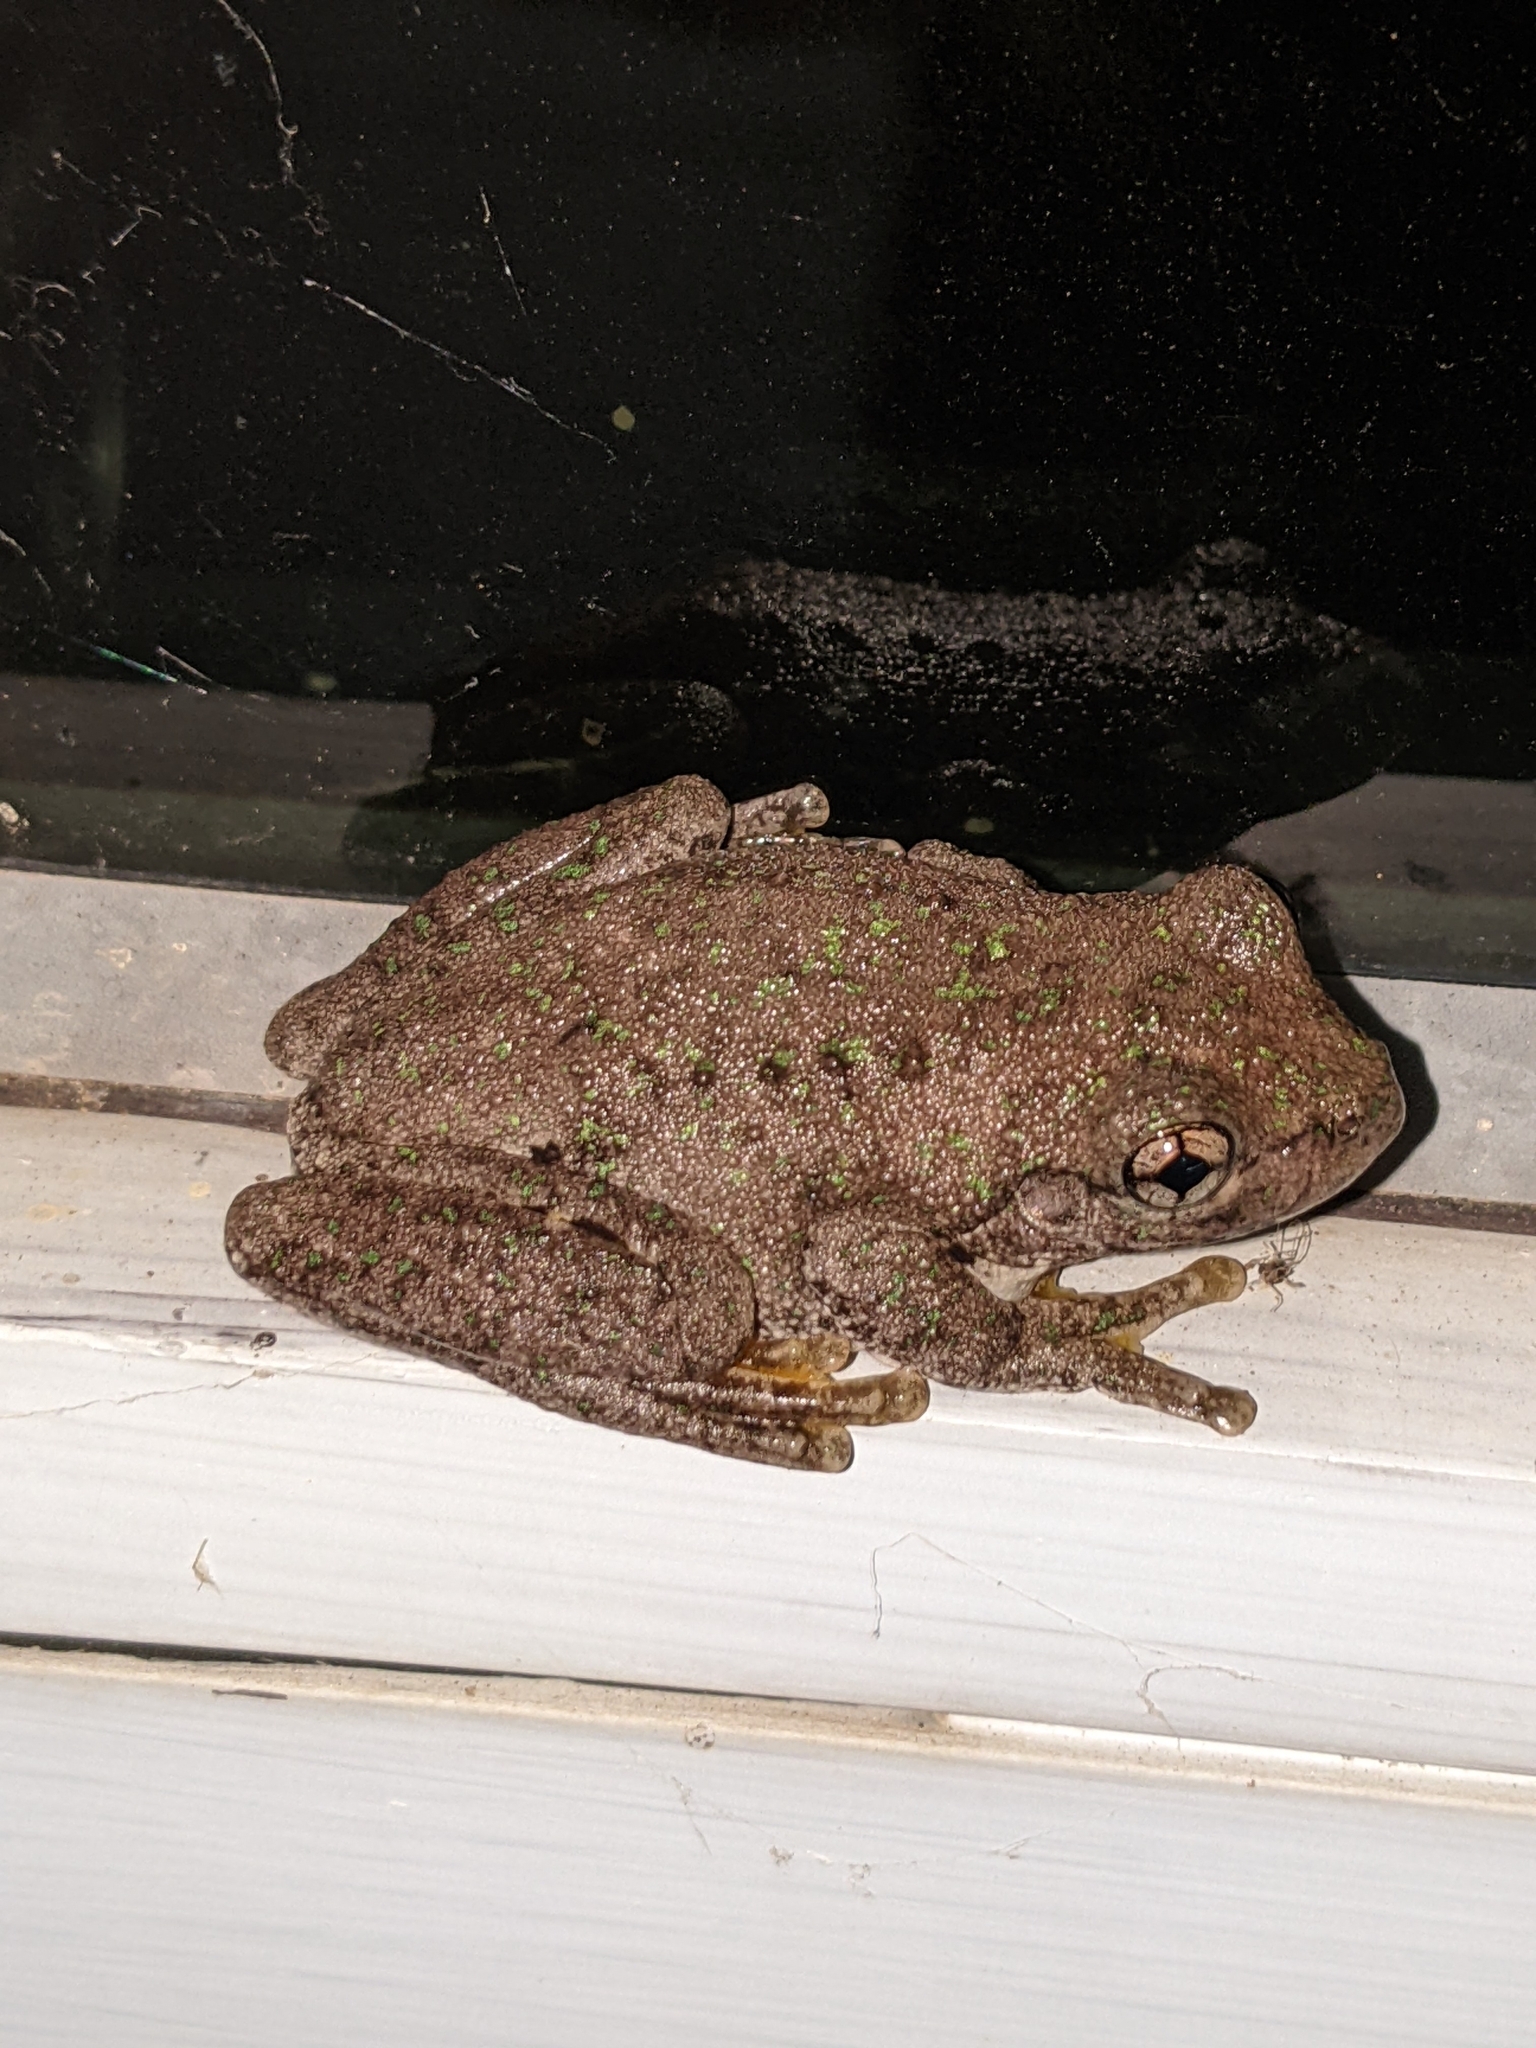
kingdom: Animalia
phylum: Chordata
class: Amphibia
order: Anura
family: Pelodryadidae
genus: Litoria
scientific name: Litoria peronii
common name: Emerald spotted treefrog
